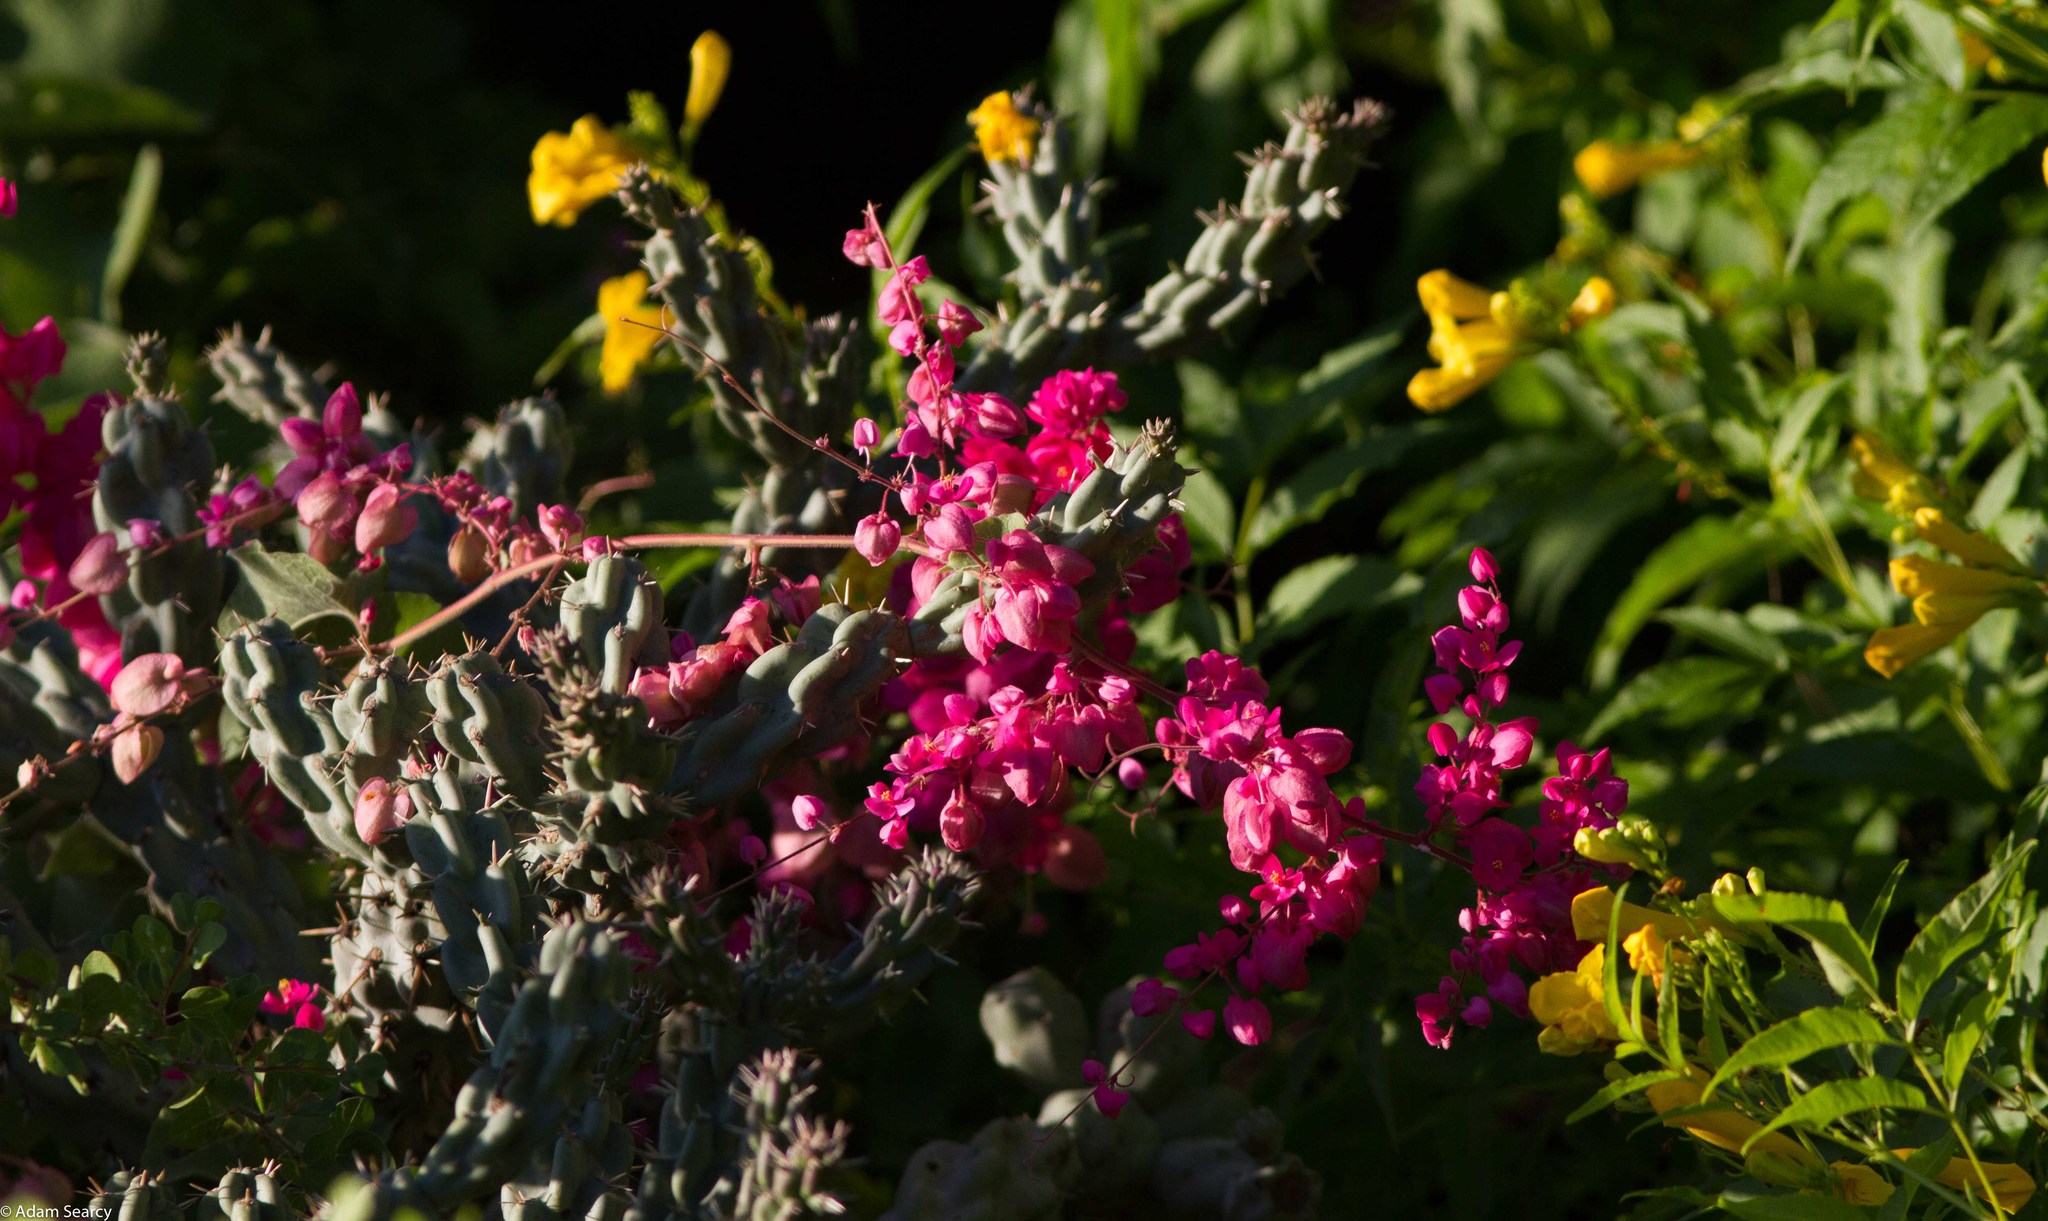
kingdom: Plantae
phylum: Tracheophyta
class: Magnoliopsida
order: Caryophyllales
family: Polygonaceae
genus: Antigonon
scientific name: Antigonon leptopus
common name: Coral vine
